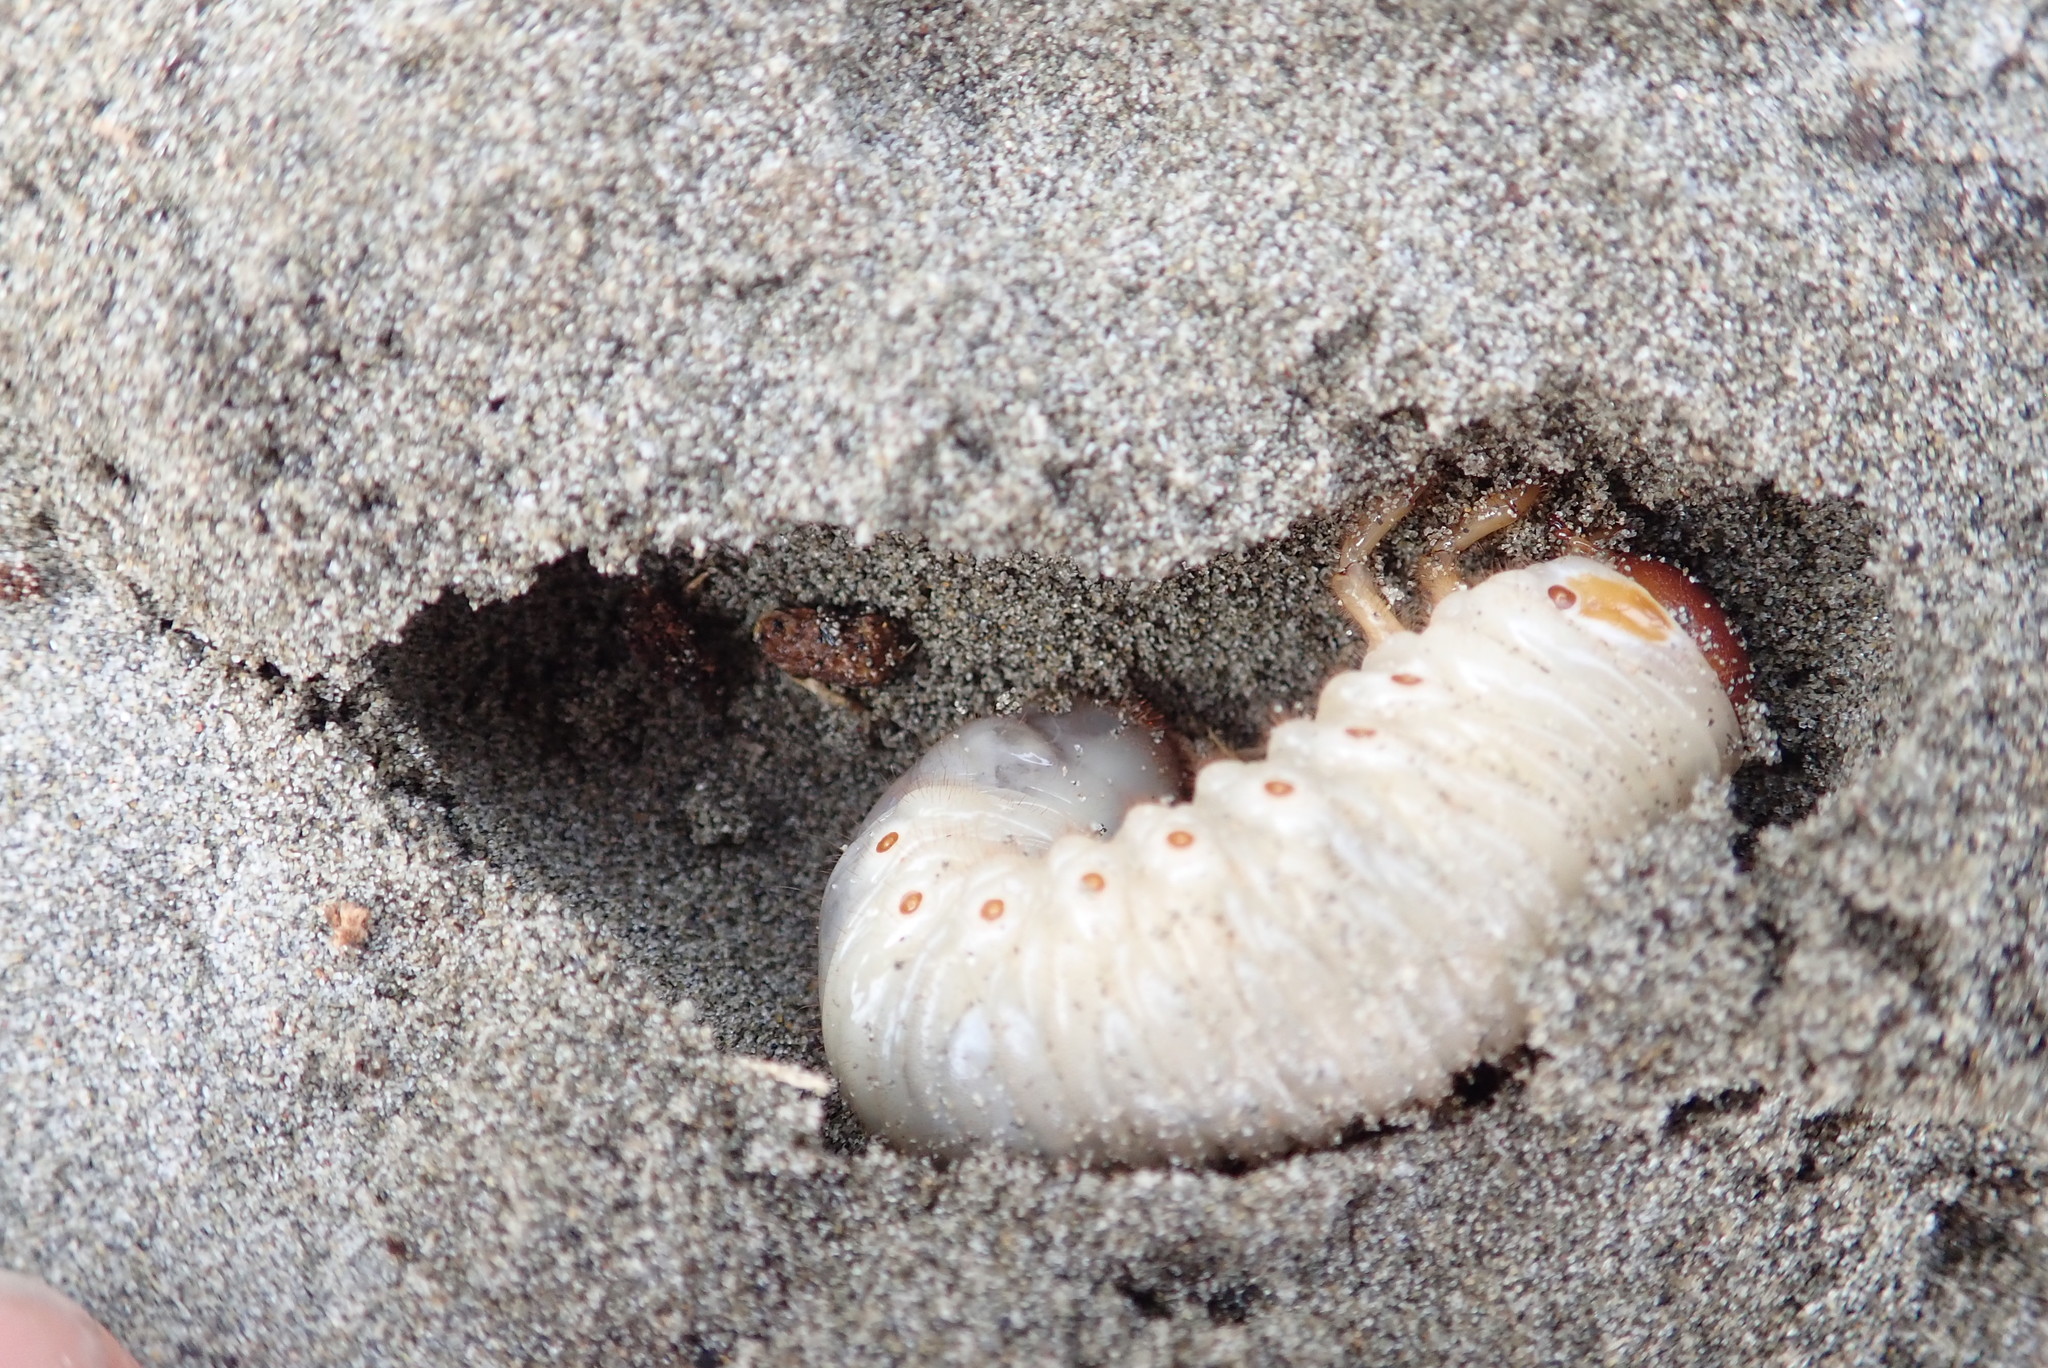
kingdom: Animalia
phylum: Arthropoda
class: Insecta
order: Coleoptera
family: Scarabaeidae
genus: Pericoptus
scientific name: Pericoptus truncatus
